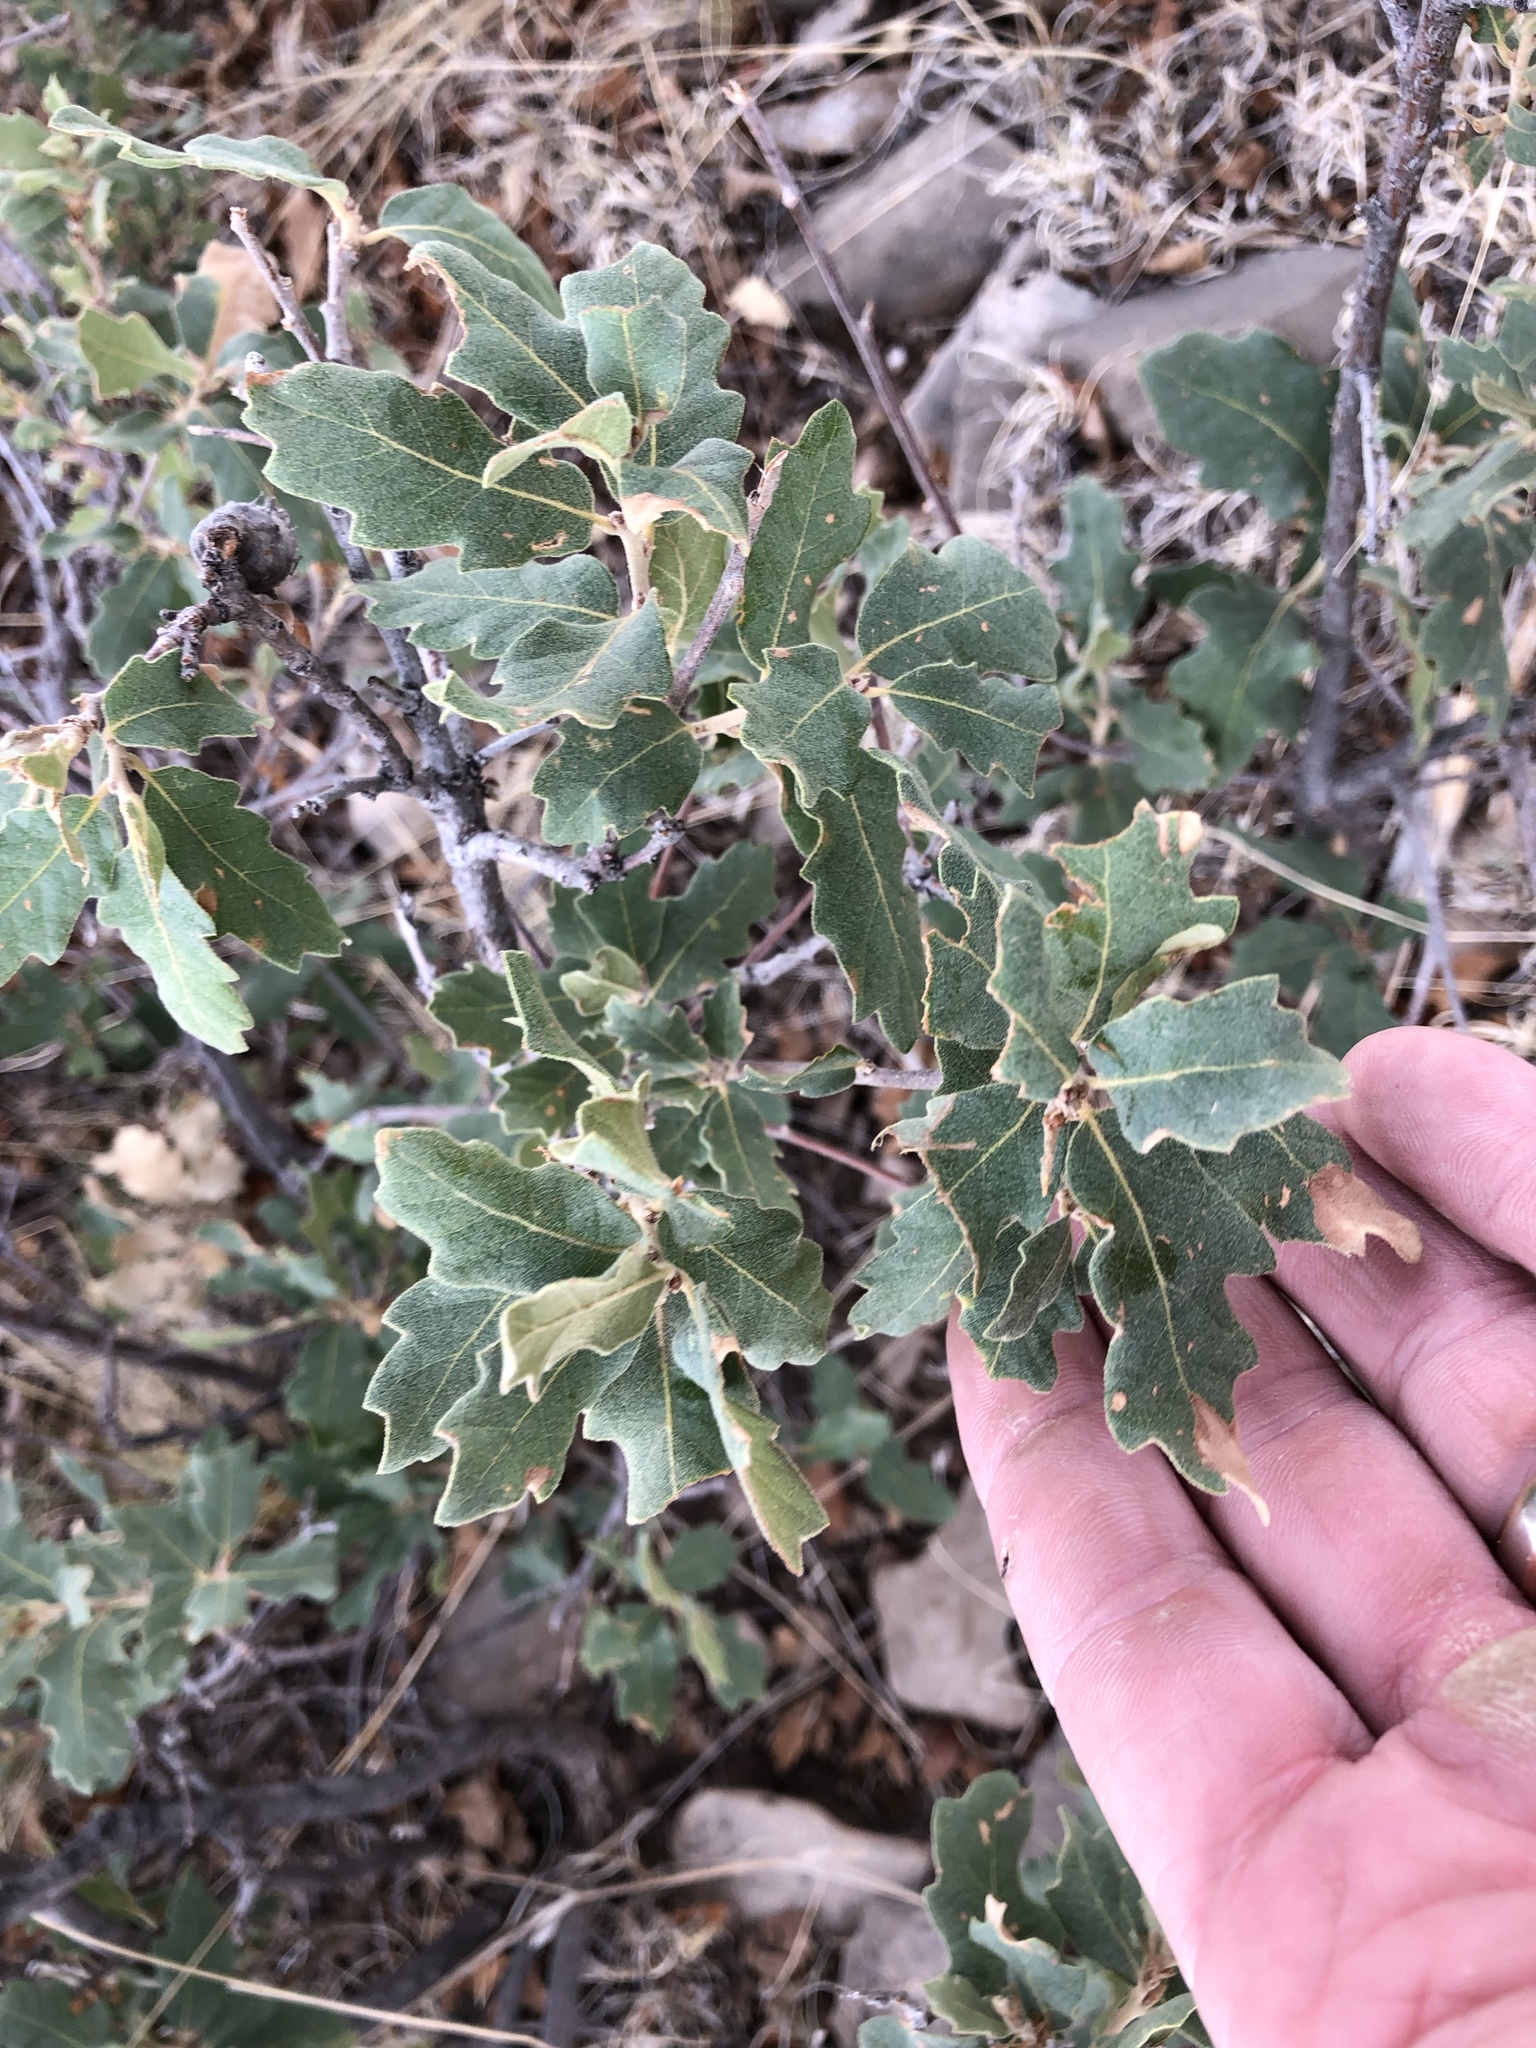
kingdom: Plantae
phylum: Tracheophyta
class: Magnoliopsida
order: Fagales
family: Fagaceae
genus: Quercus
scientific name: Quercus undulata
